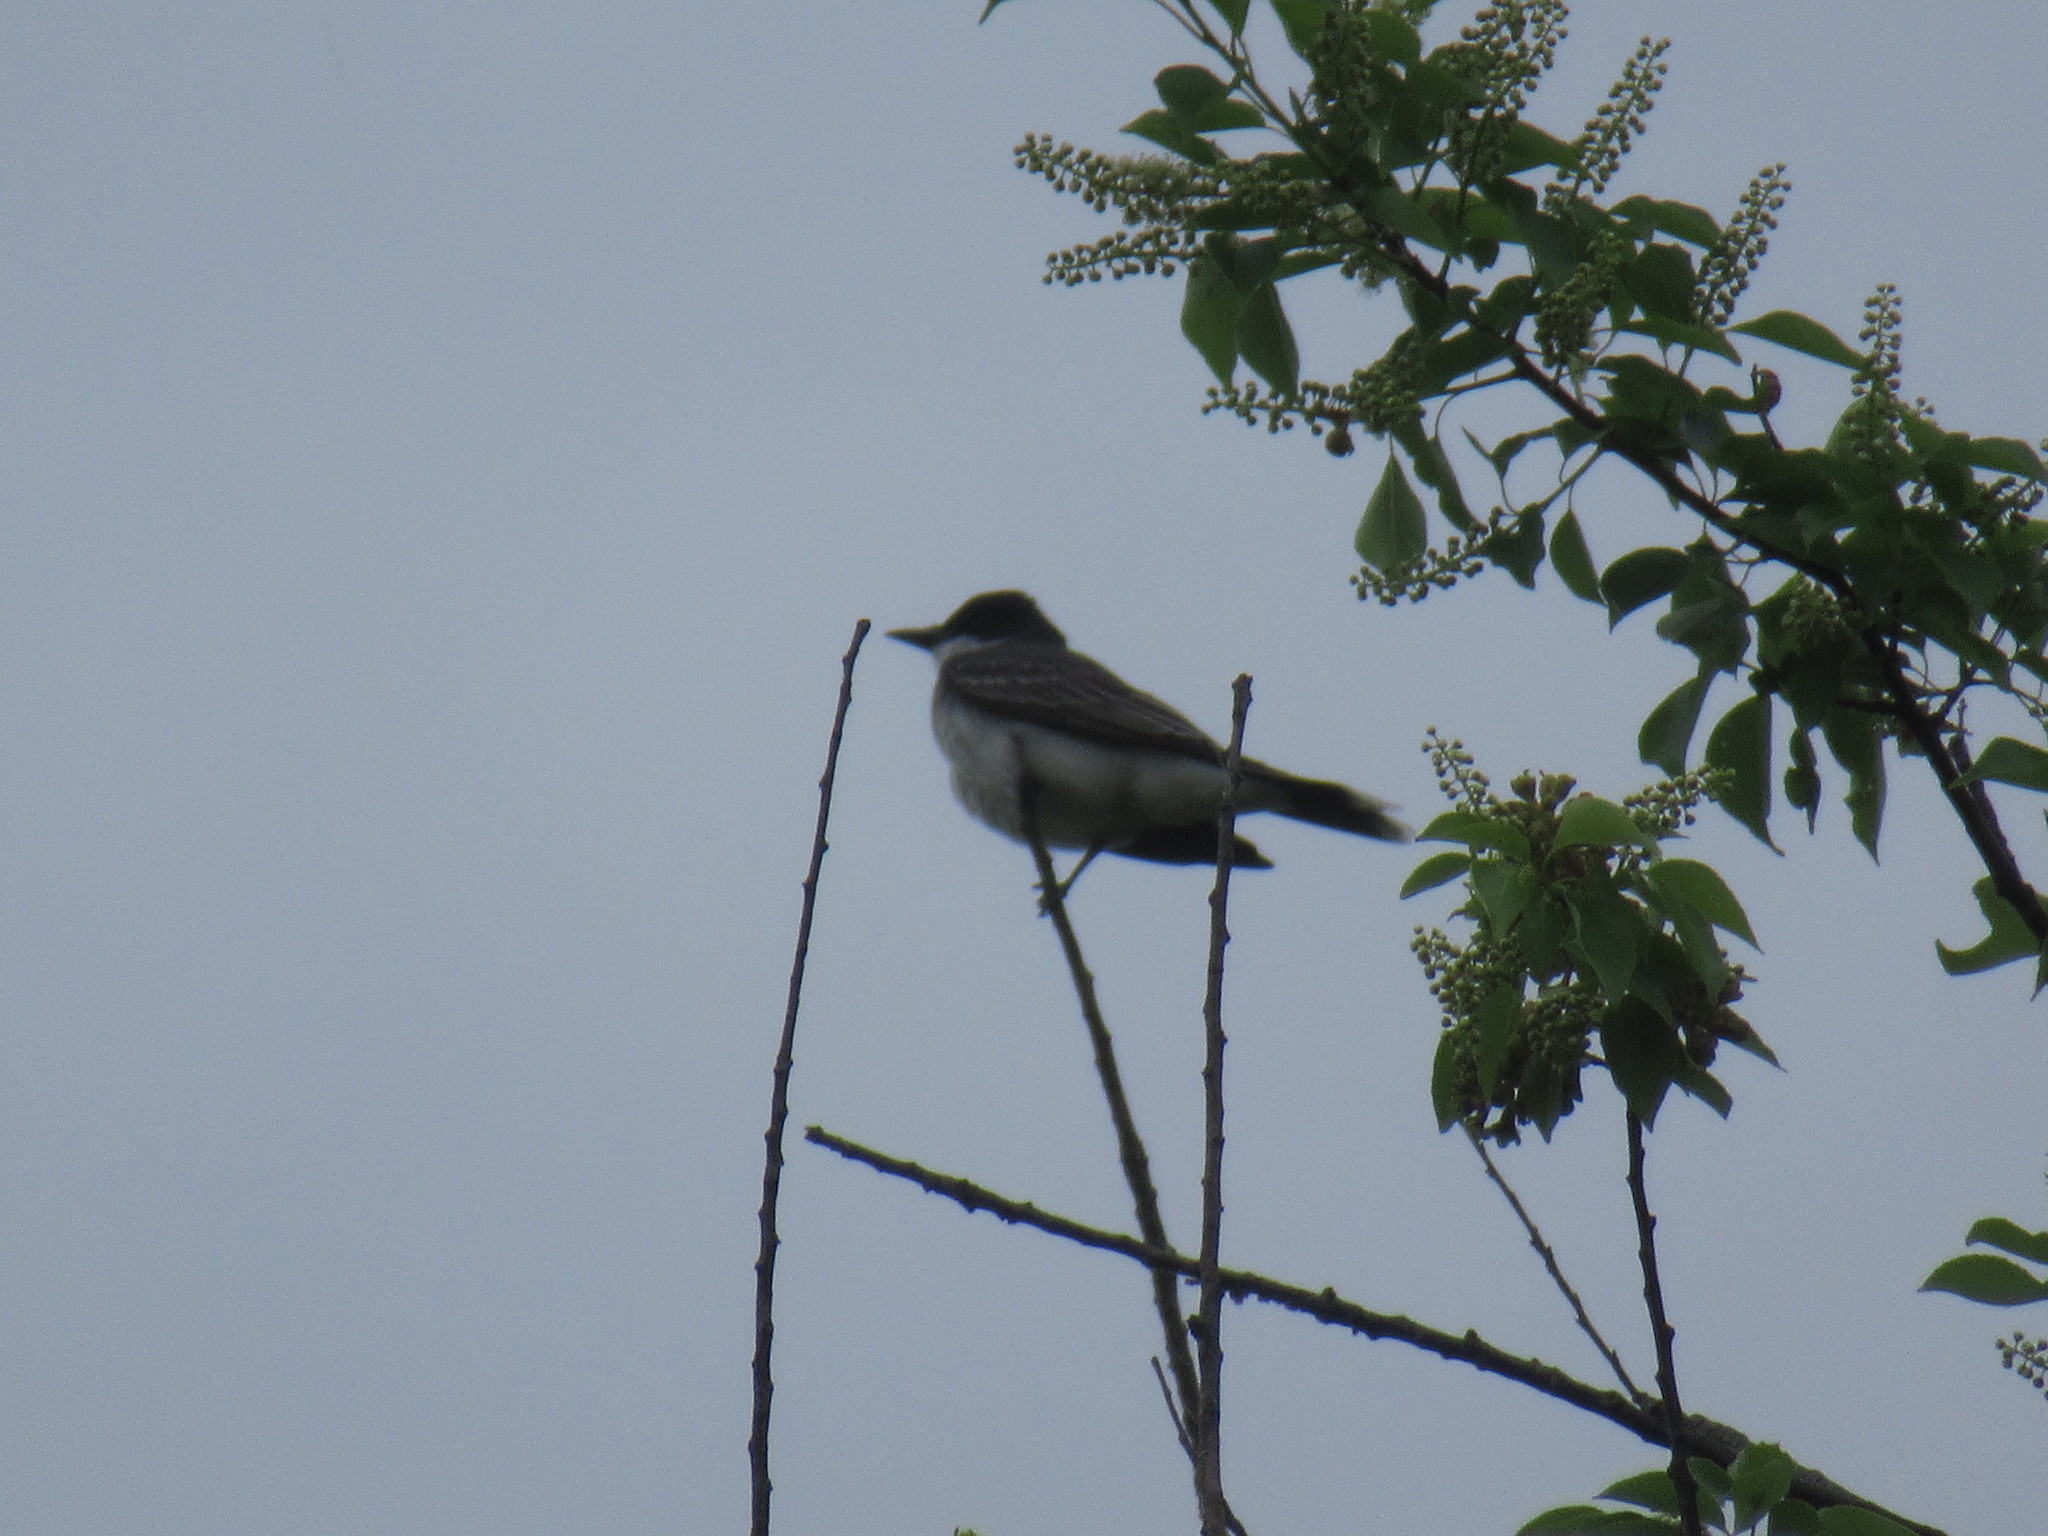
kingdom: Animalia
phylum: Chordata
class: Aves
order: Passeriformes
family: Tyrannidae
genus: Tyrannus
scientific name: Tyrannus tyrannus
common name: Eastern kingbird
